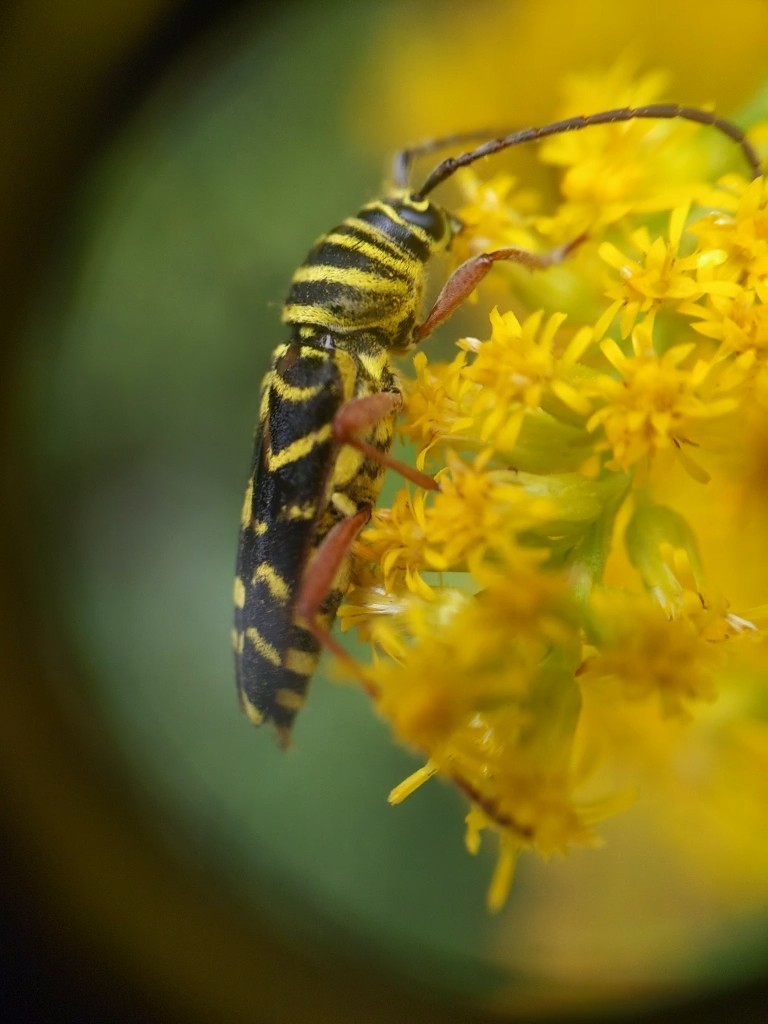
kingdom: Animalia
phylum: Arthropoda
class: Insecta
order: Coleoptera
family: Cerambycidae
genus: Megacyllene
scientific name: Megacyllene robiniae
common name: Locust borer
